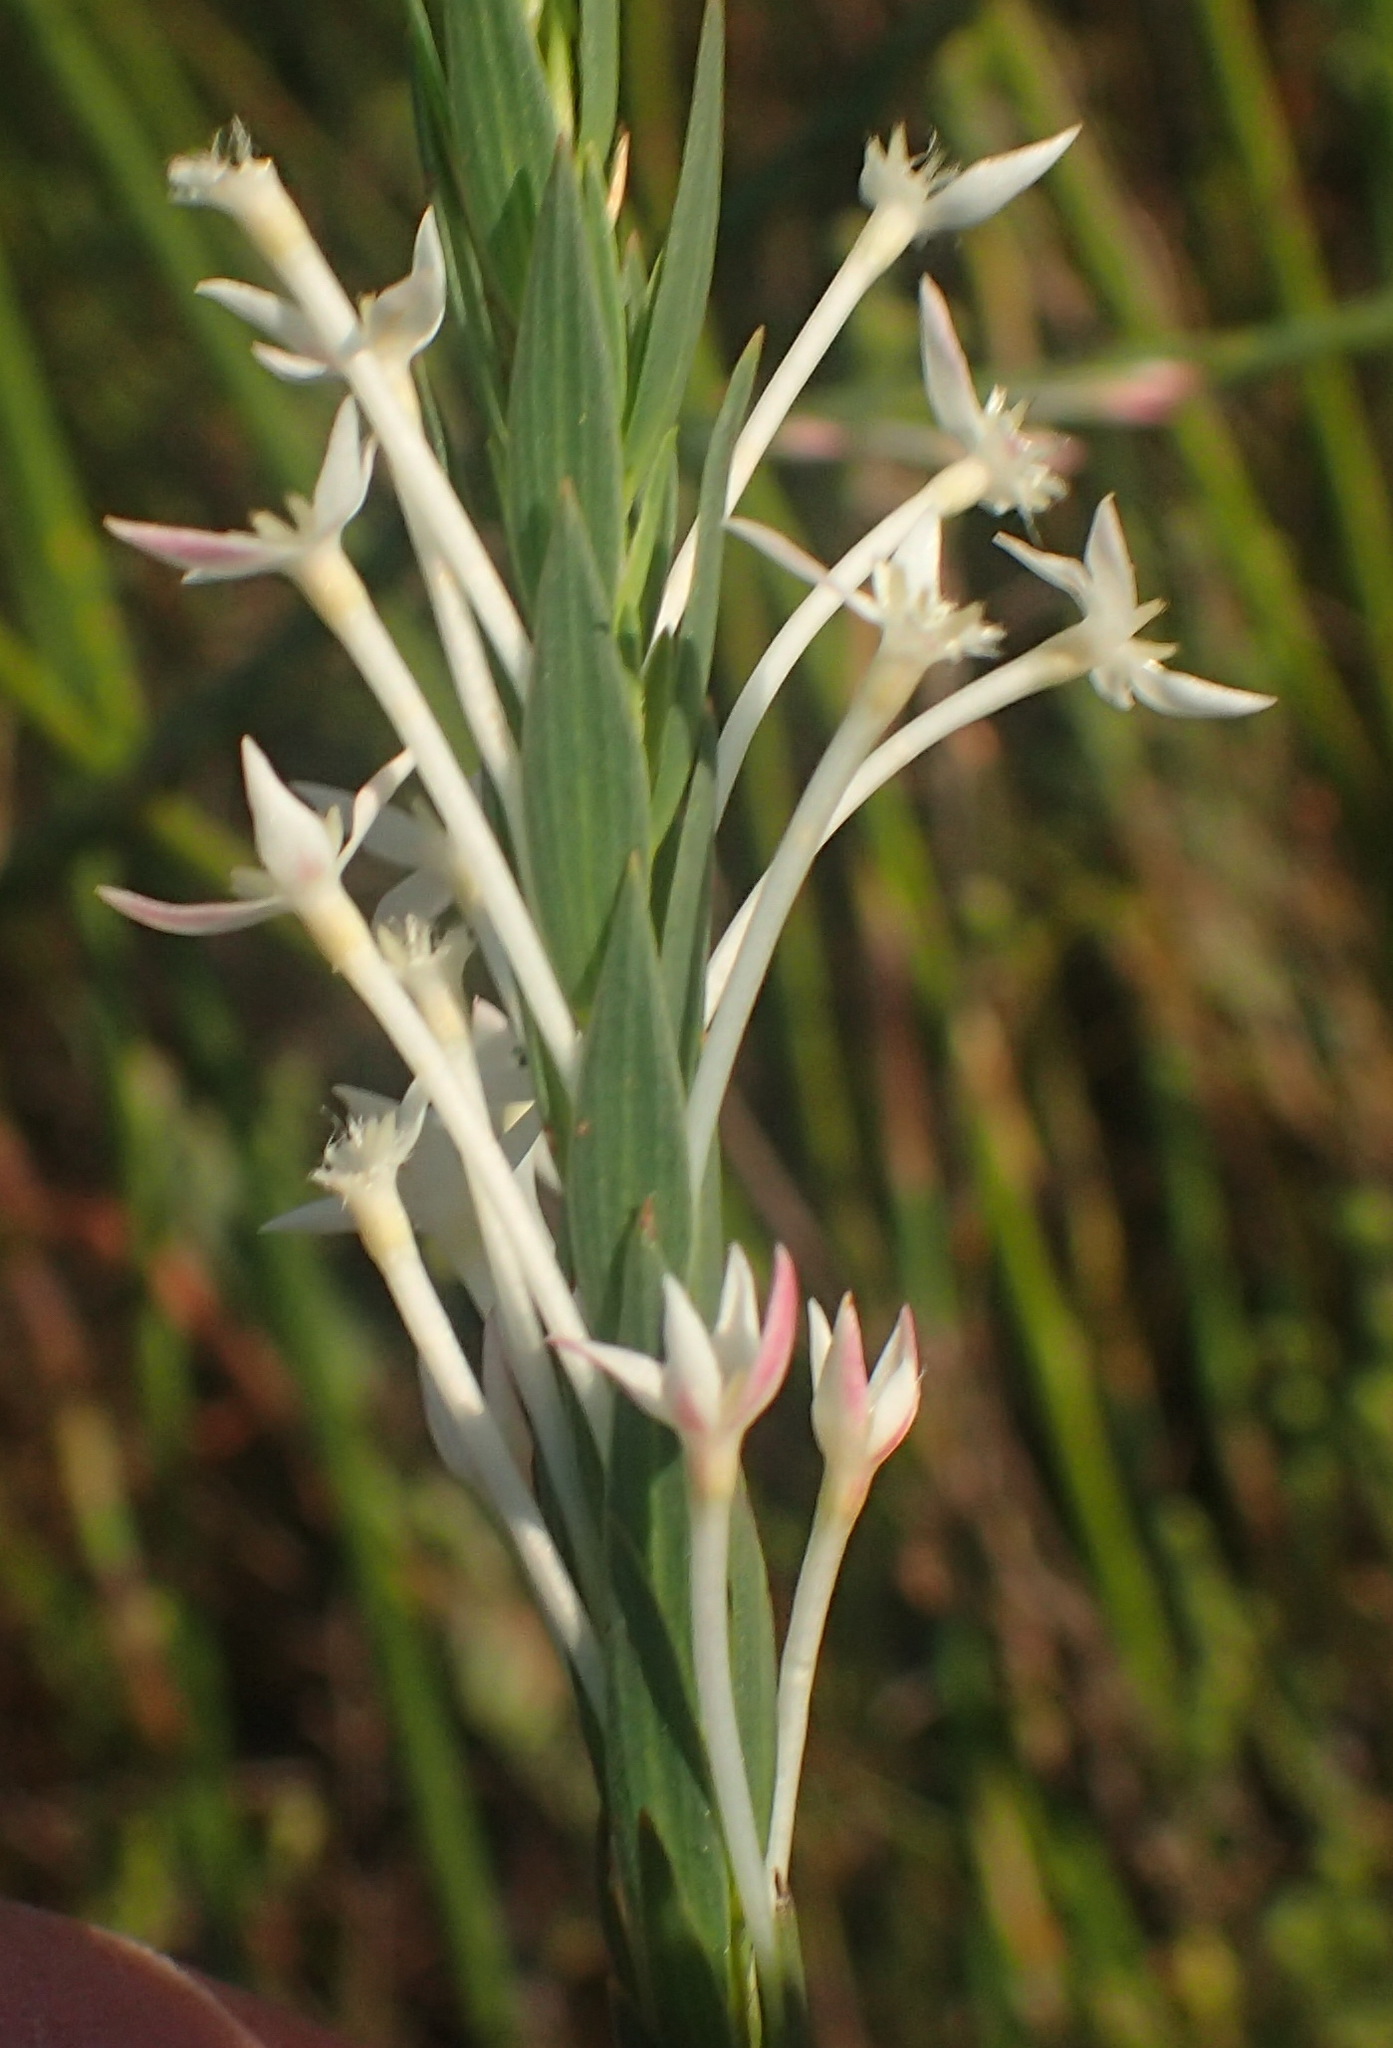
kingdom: Plantae
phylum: Tracheophyta
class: Magnoliopsida
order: Malvales
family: Thymelaeaceae
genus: Struthiola
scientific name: Struthiola myrsinites
